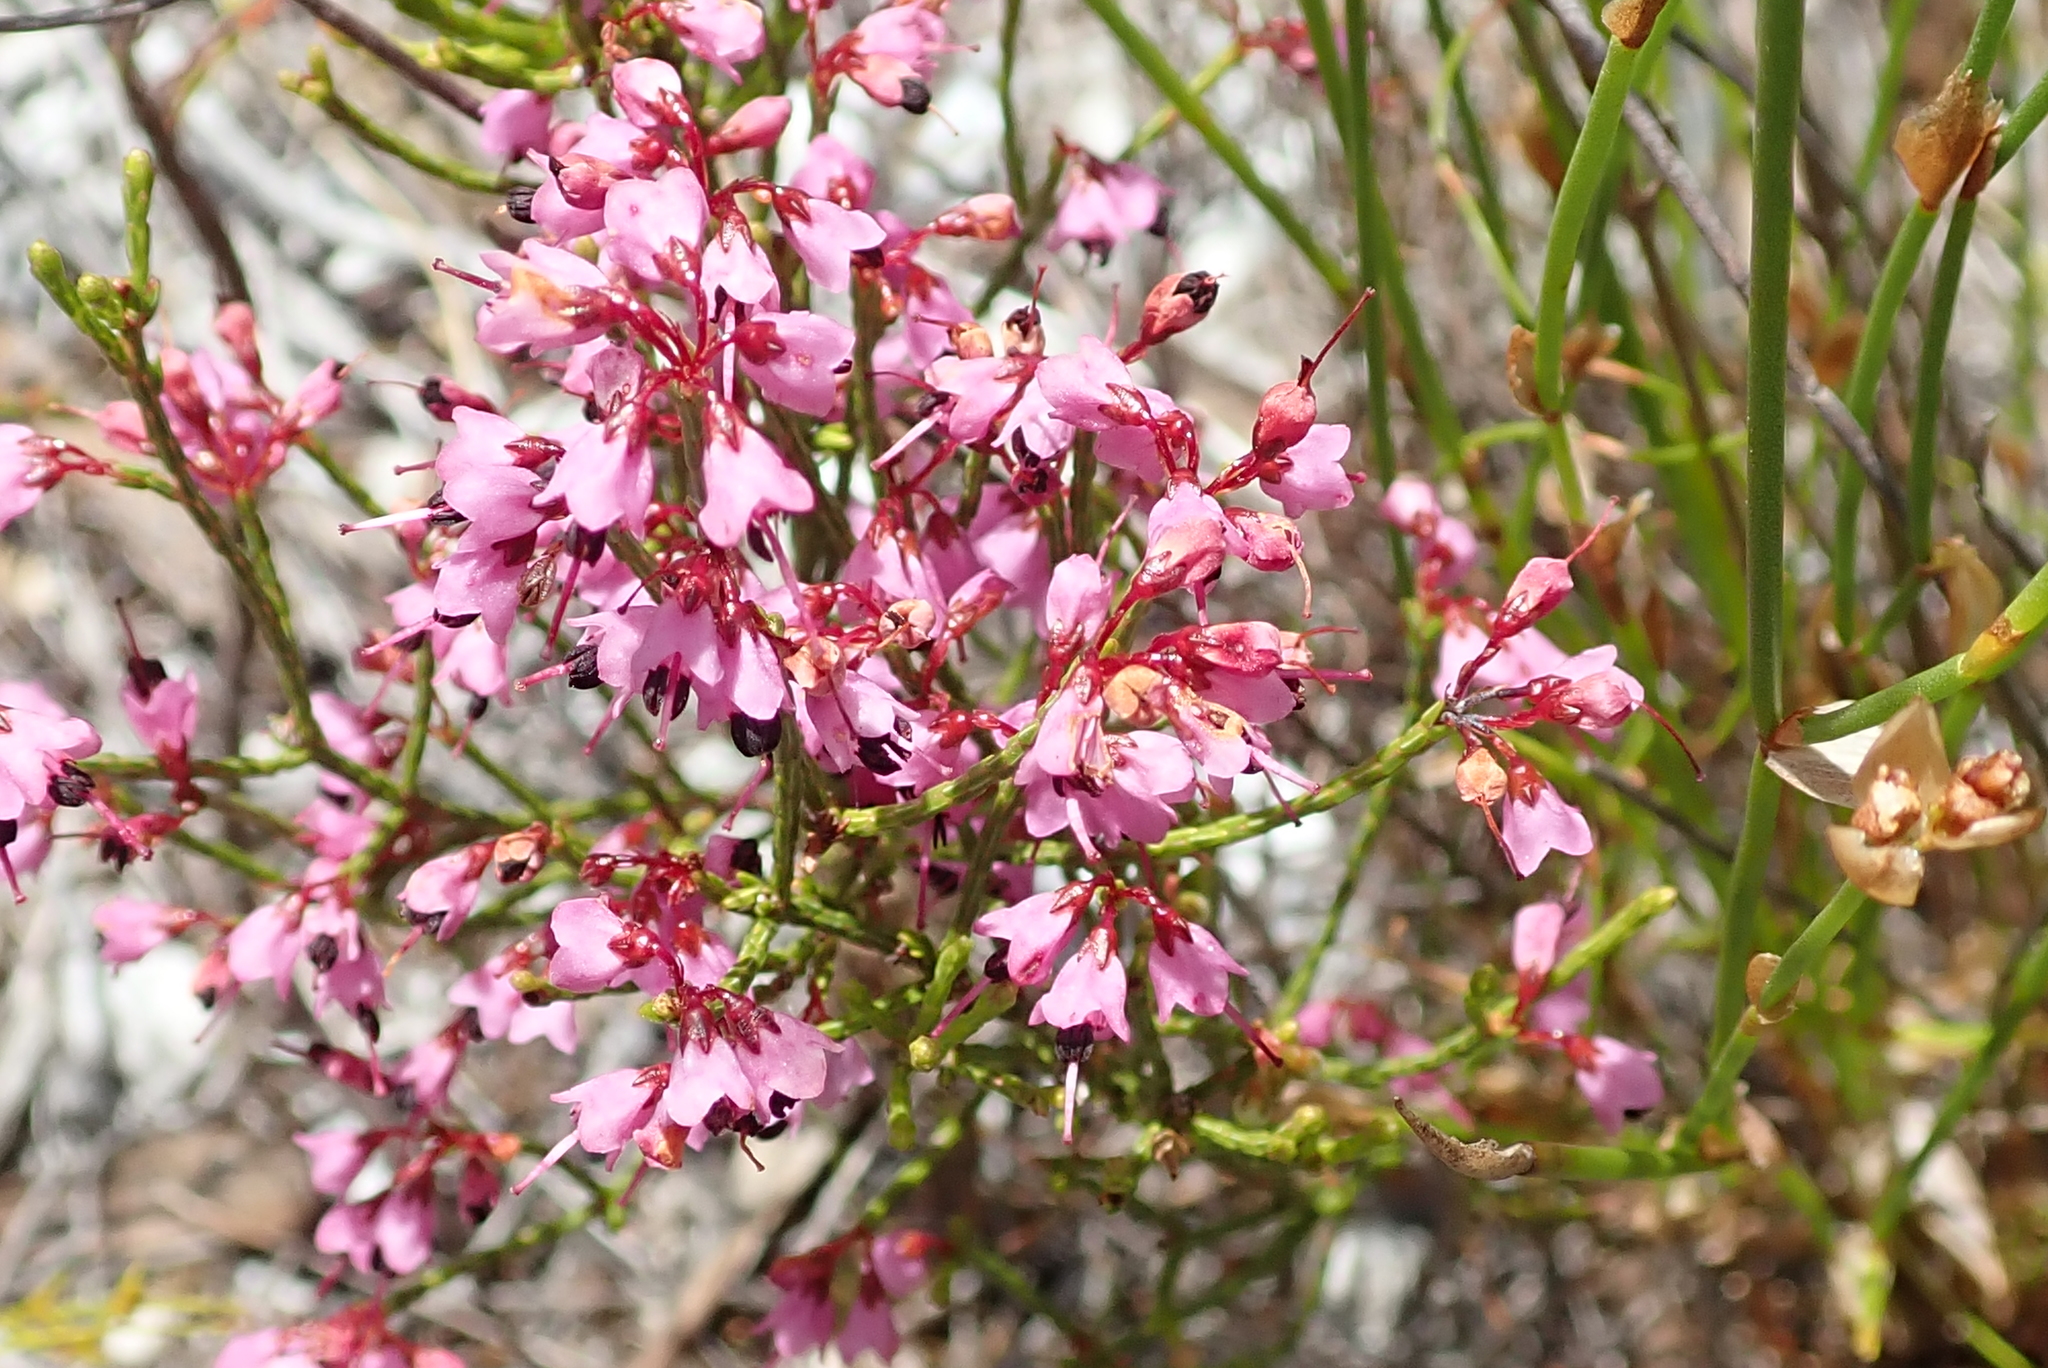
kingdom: Plantae
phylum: Tracheophyta
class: Magnoliopsida
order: Ericales
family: Ericaceae
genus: Erica
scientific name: Erica hermani
